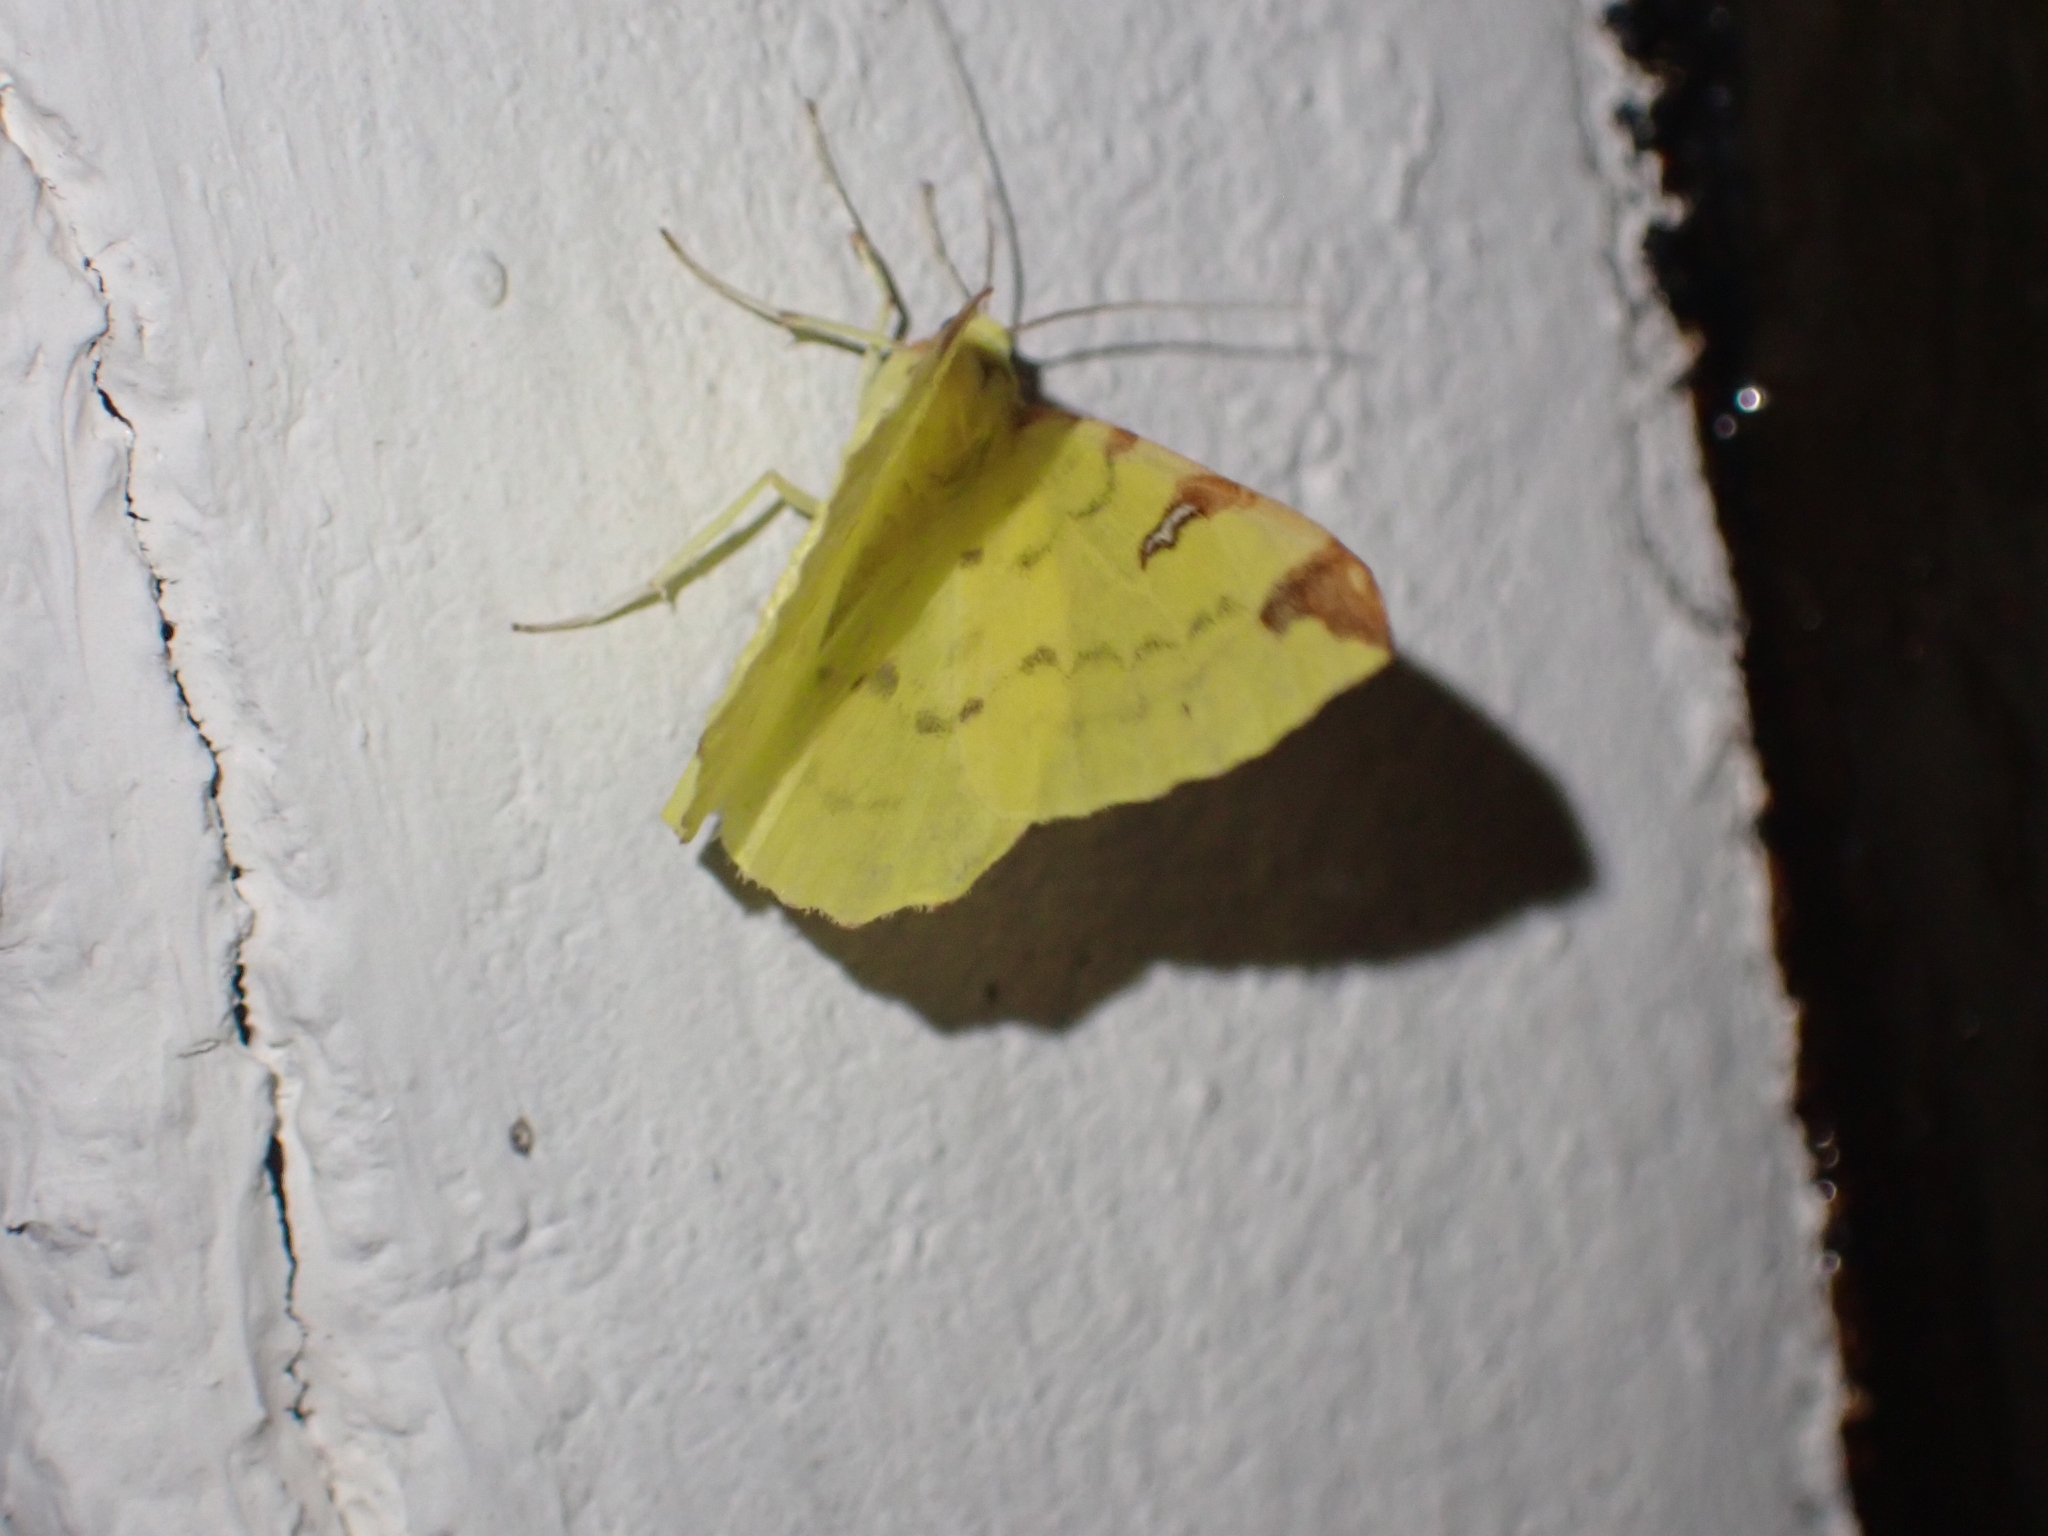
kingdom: Animalia
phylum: Arthropoda
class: Insecta
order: Lepidoptera
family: Geometridae
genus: Opisthograptis
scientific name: Opisthograptis luteolata
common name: Brimstone moth
